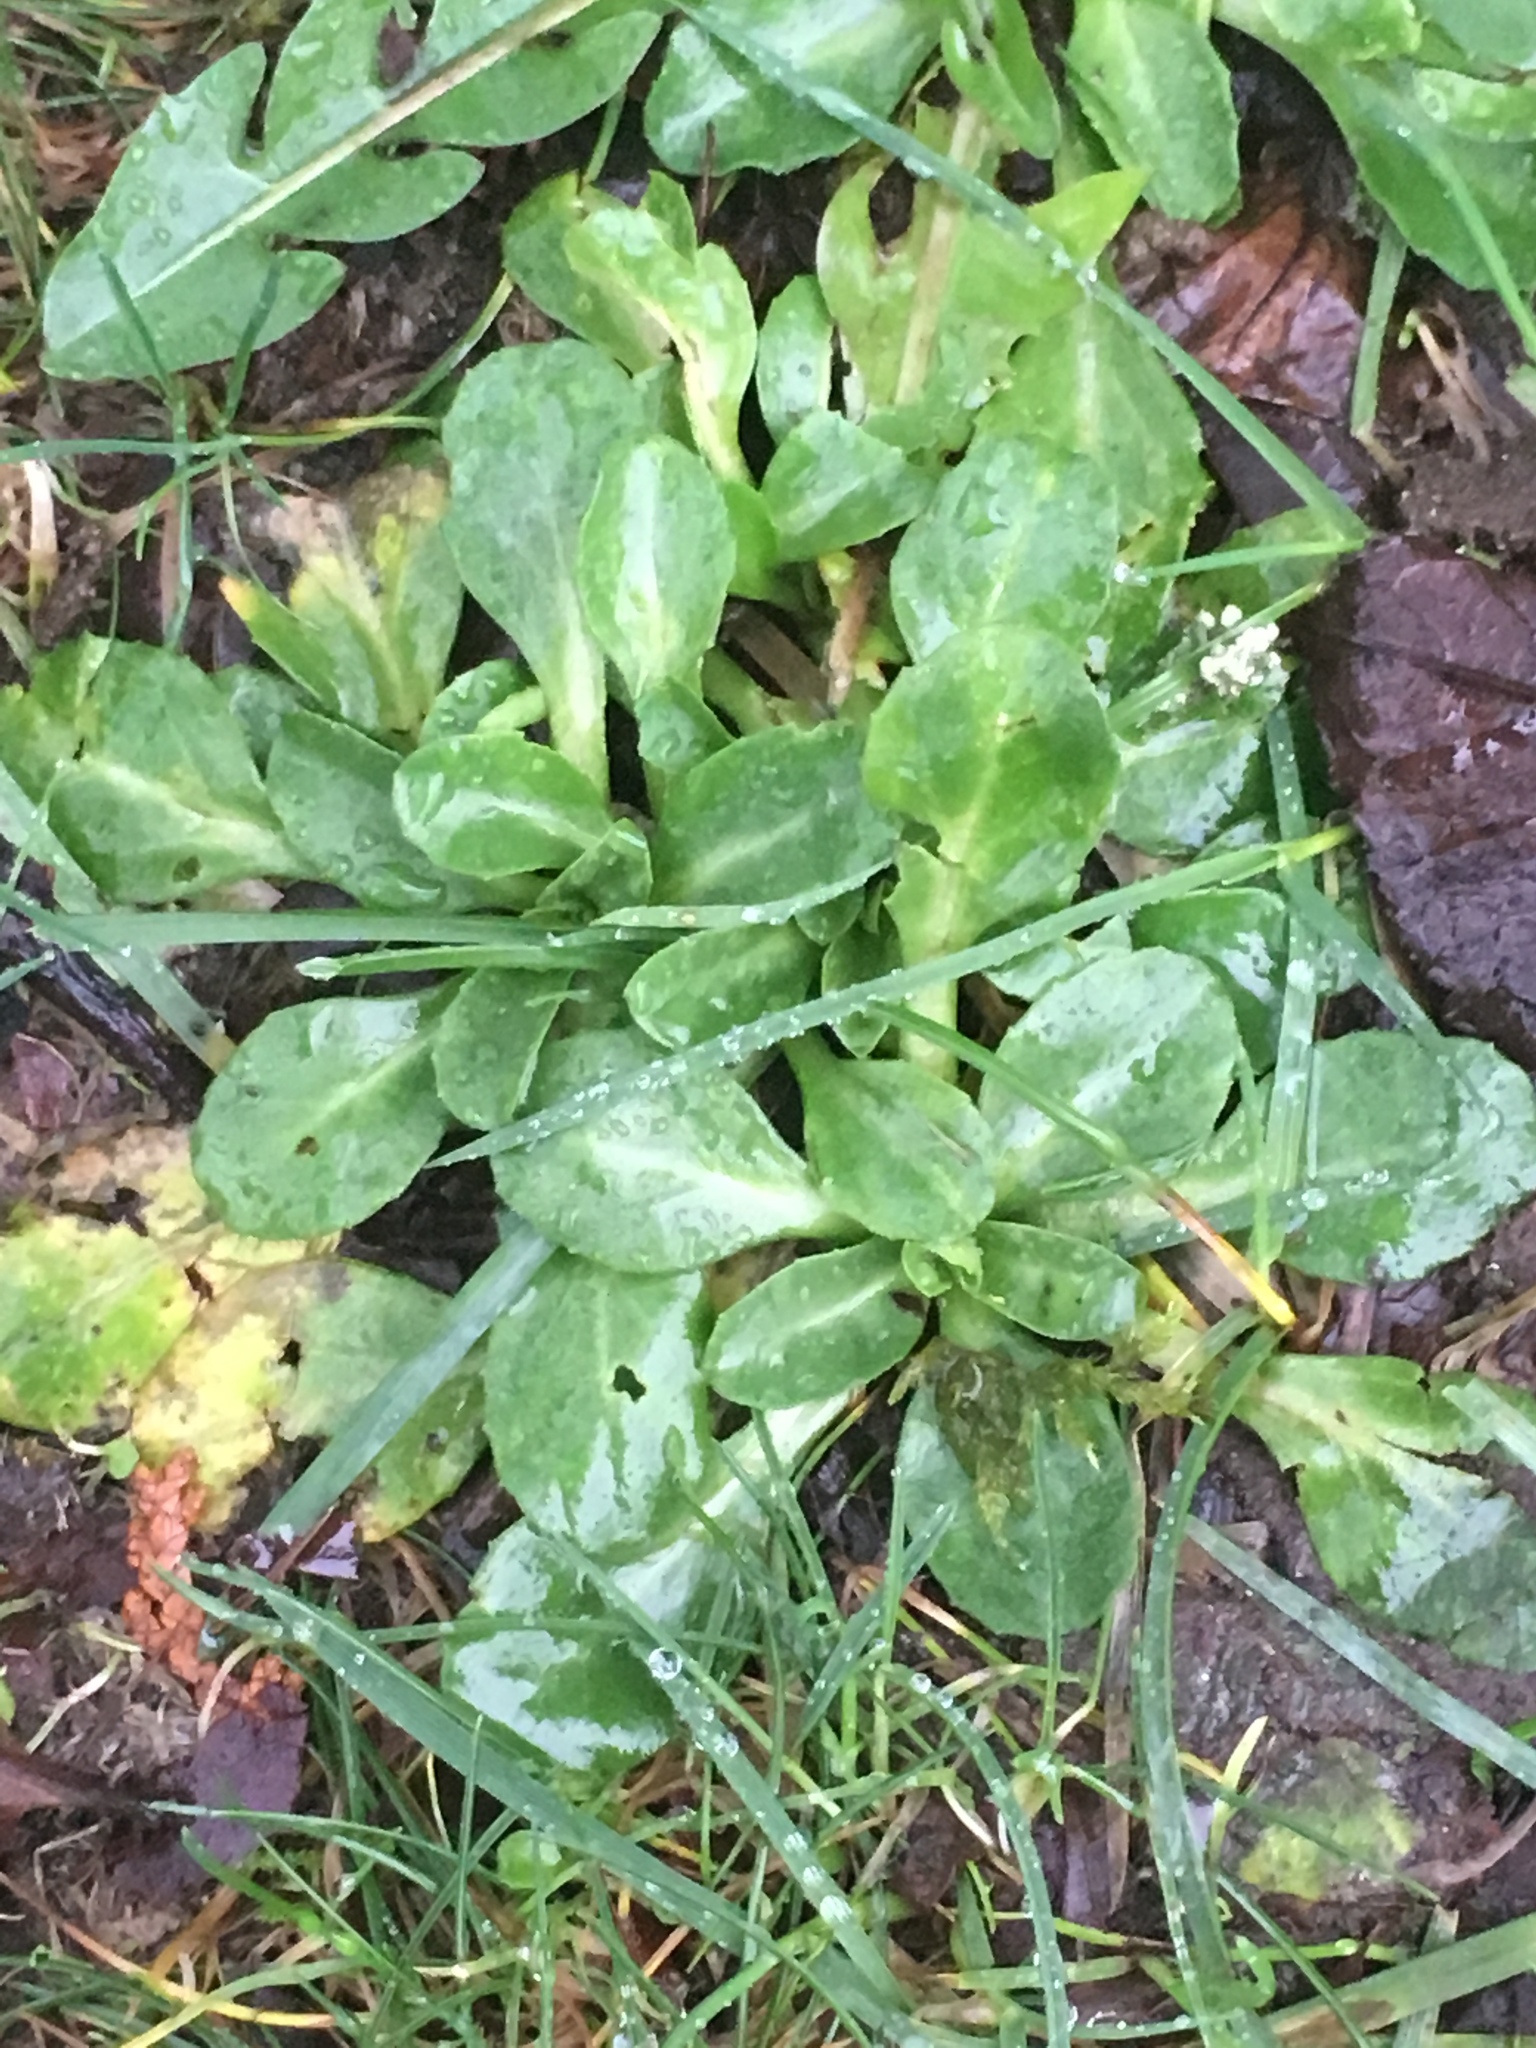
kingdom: Plantae
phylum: Tracheophyta
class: Magnoliopsida
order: Asterales
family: Asteraceae
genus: Bellis
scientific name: Bellis perennis
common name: Lawndaisy
